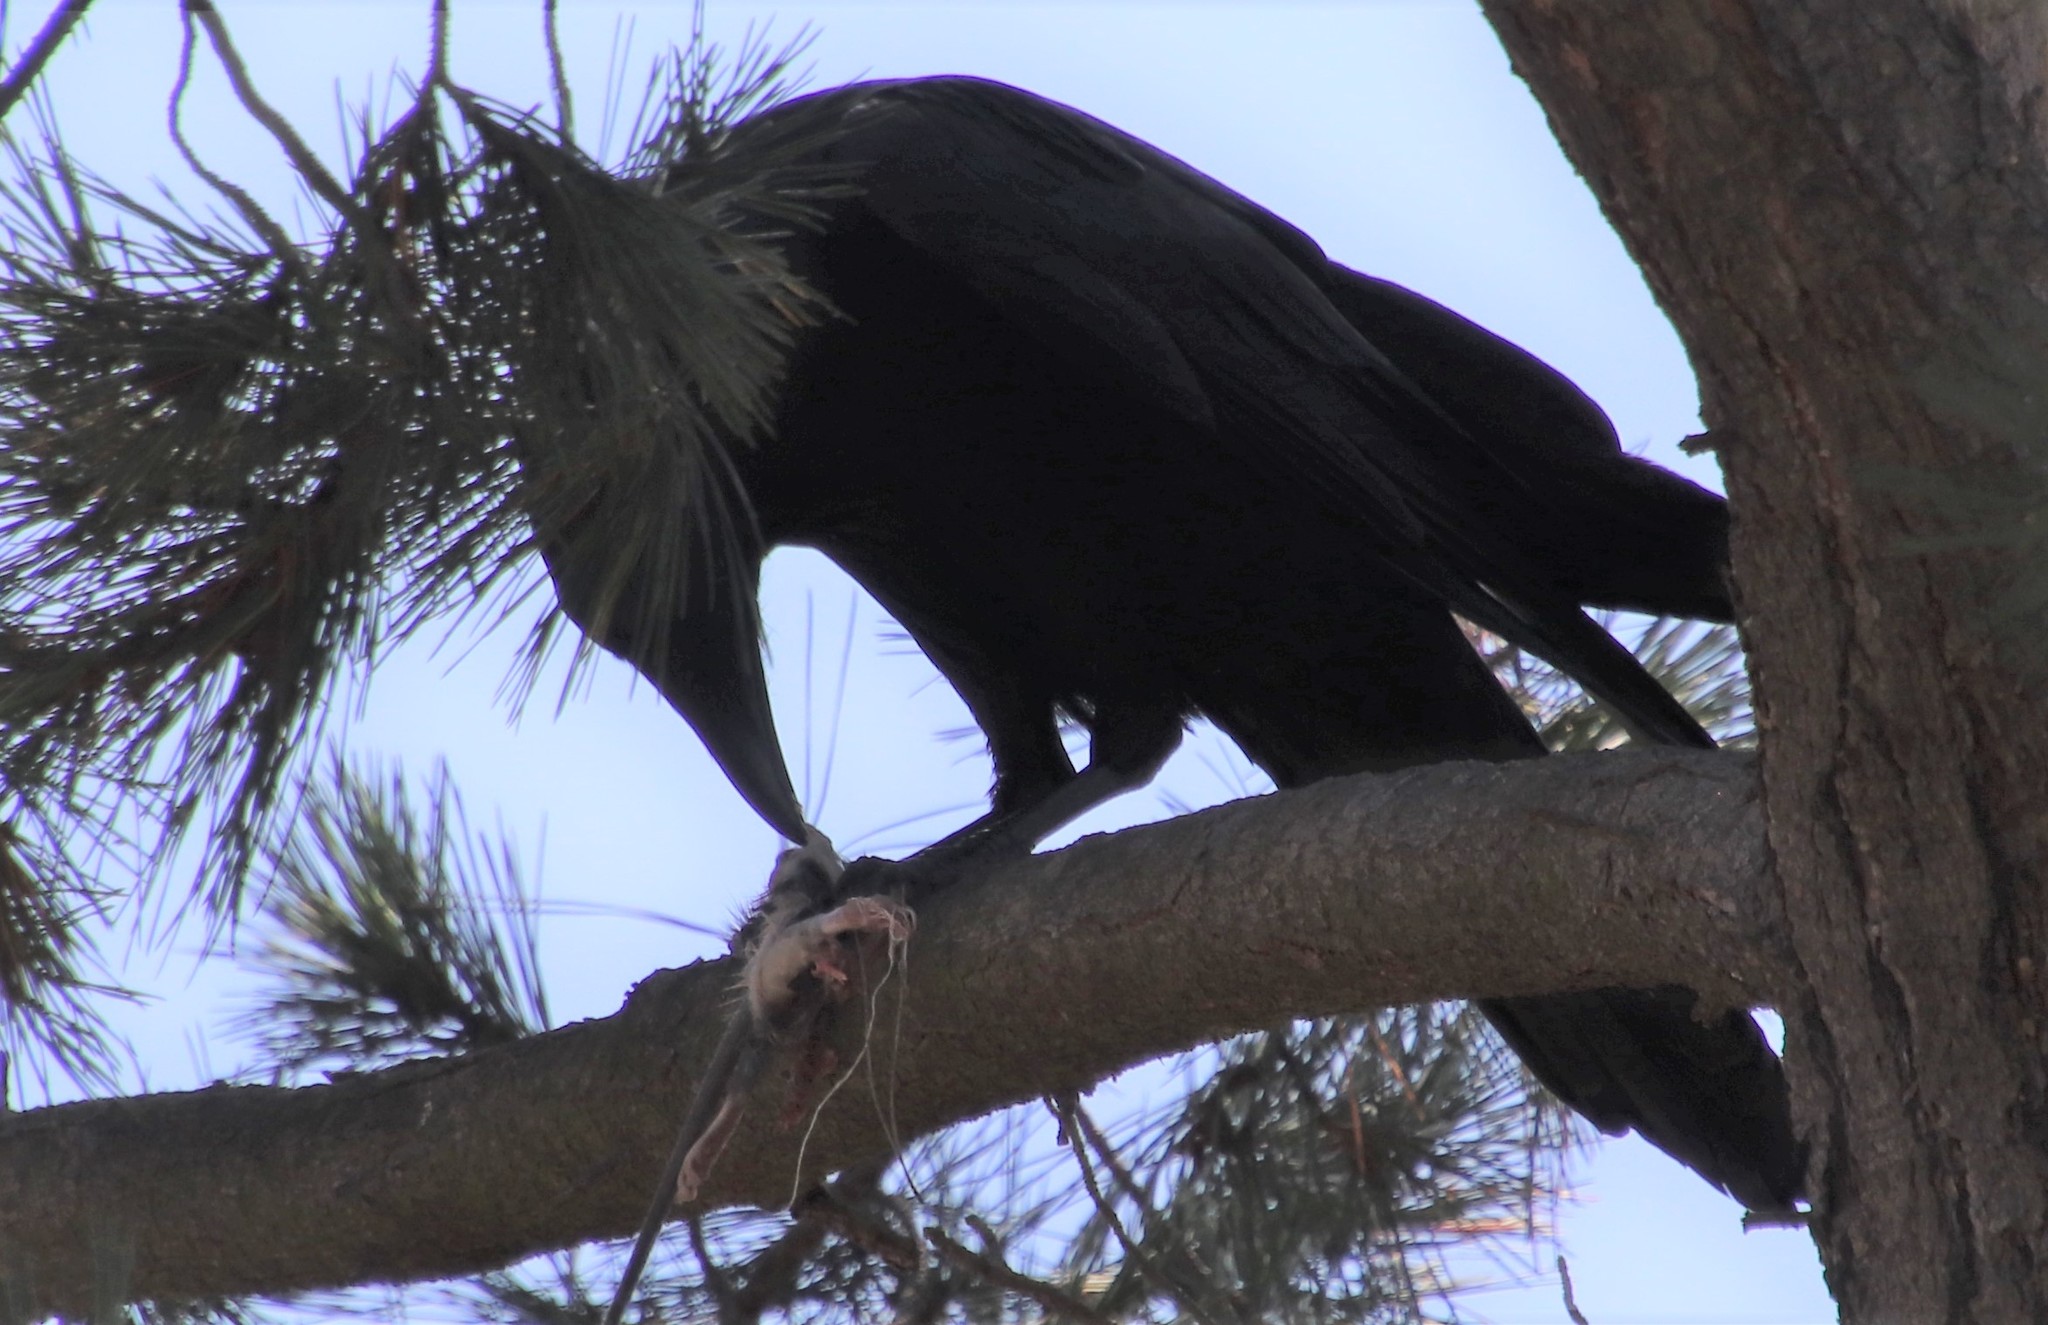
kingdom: Animalia
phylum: Chordata
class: Aves
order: Passeriformes
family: Corvidae
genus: Corvus
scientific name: Corvus corax
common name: Common raven
